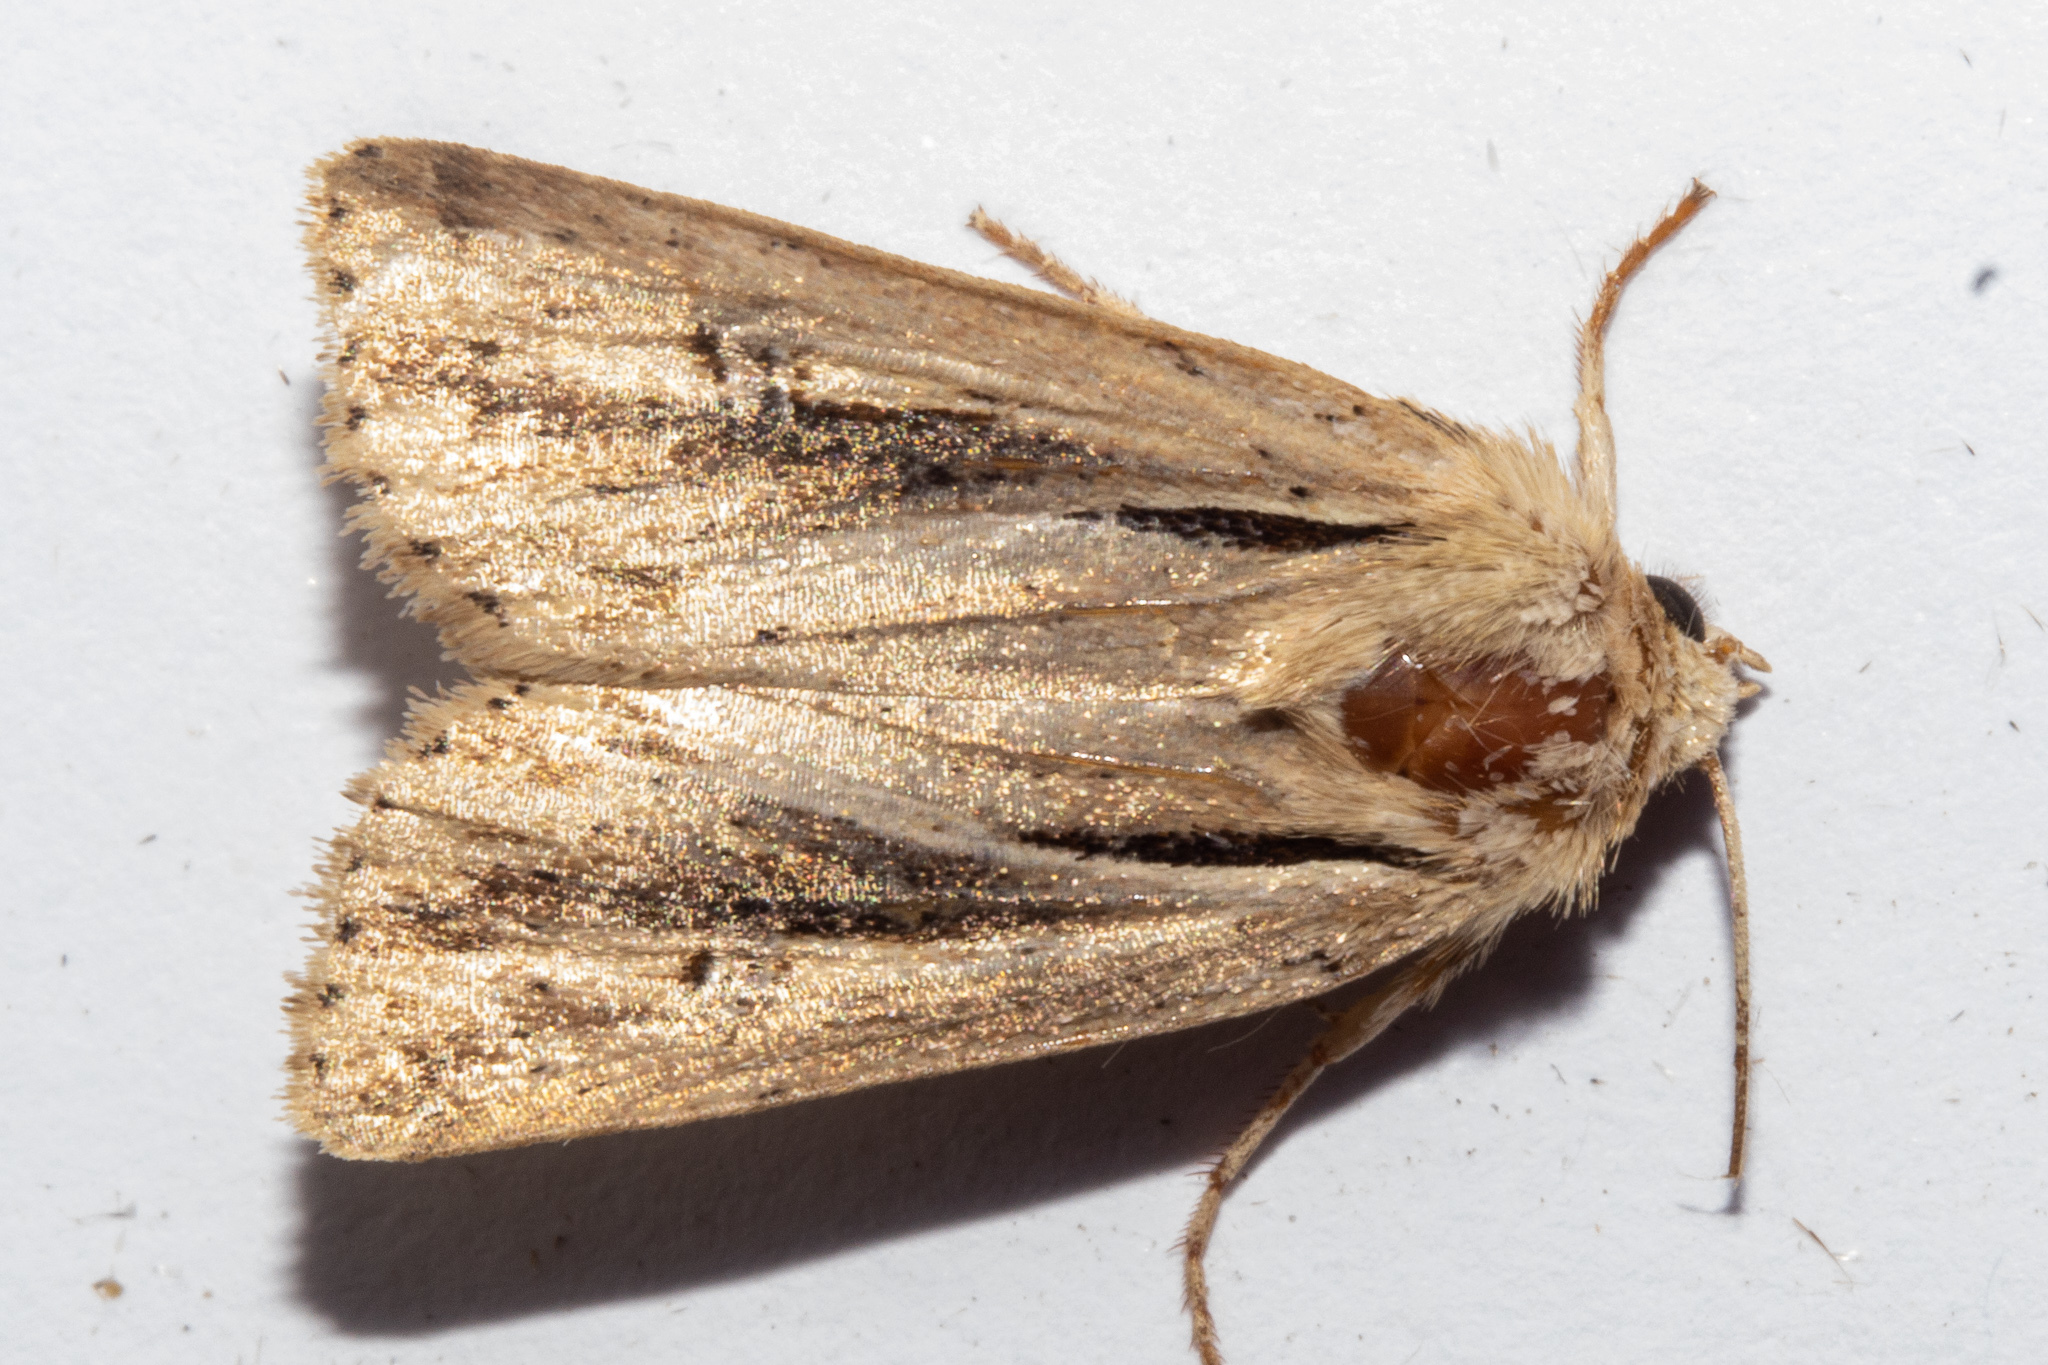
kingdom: Animalia
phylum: Arthropoda
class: Insecta
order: Lepidoptera
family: Noctuidae
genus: Ichneutica
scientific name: Ichneutica propria
